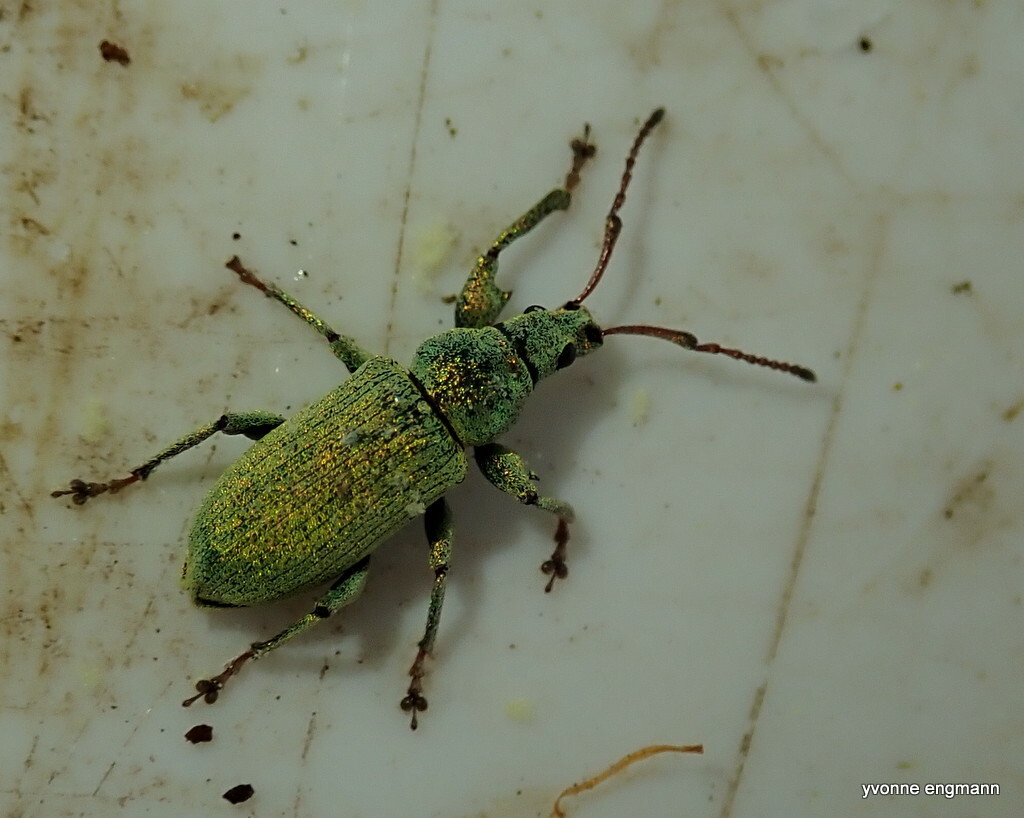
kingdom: Animalia
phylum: Arthropoda
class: Insecta
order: Coleoptera
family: Curculionidae
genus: Phyllobius
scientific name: Phyllobius maculicornis
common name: Green leaf weevil
